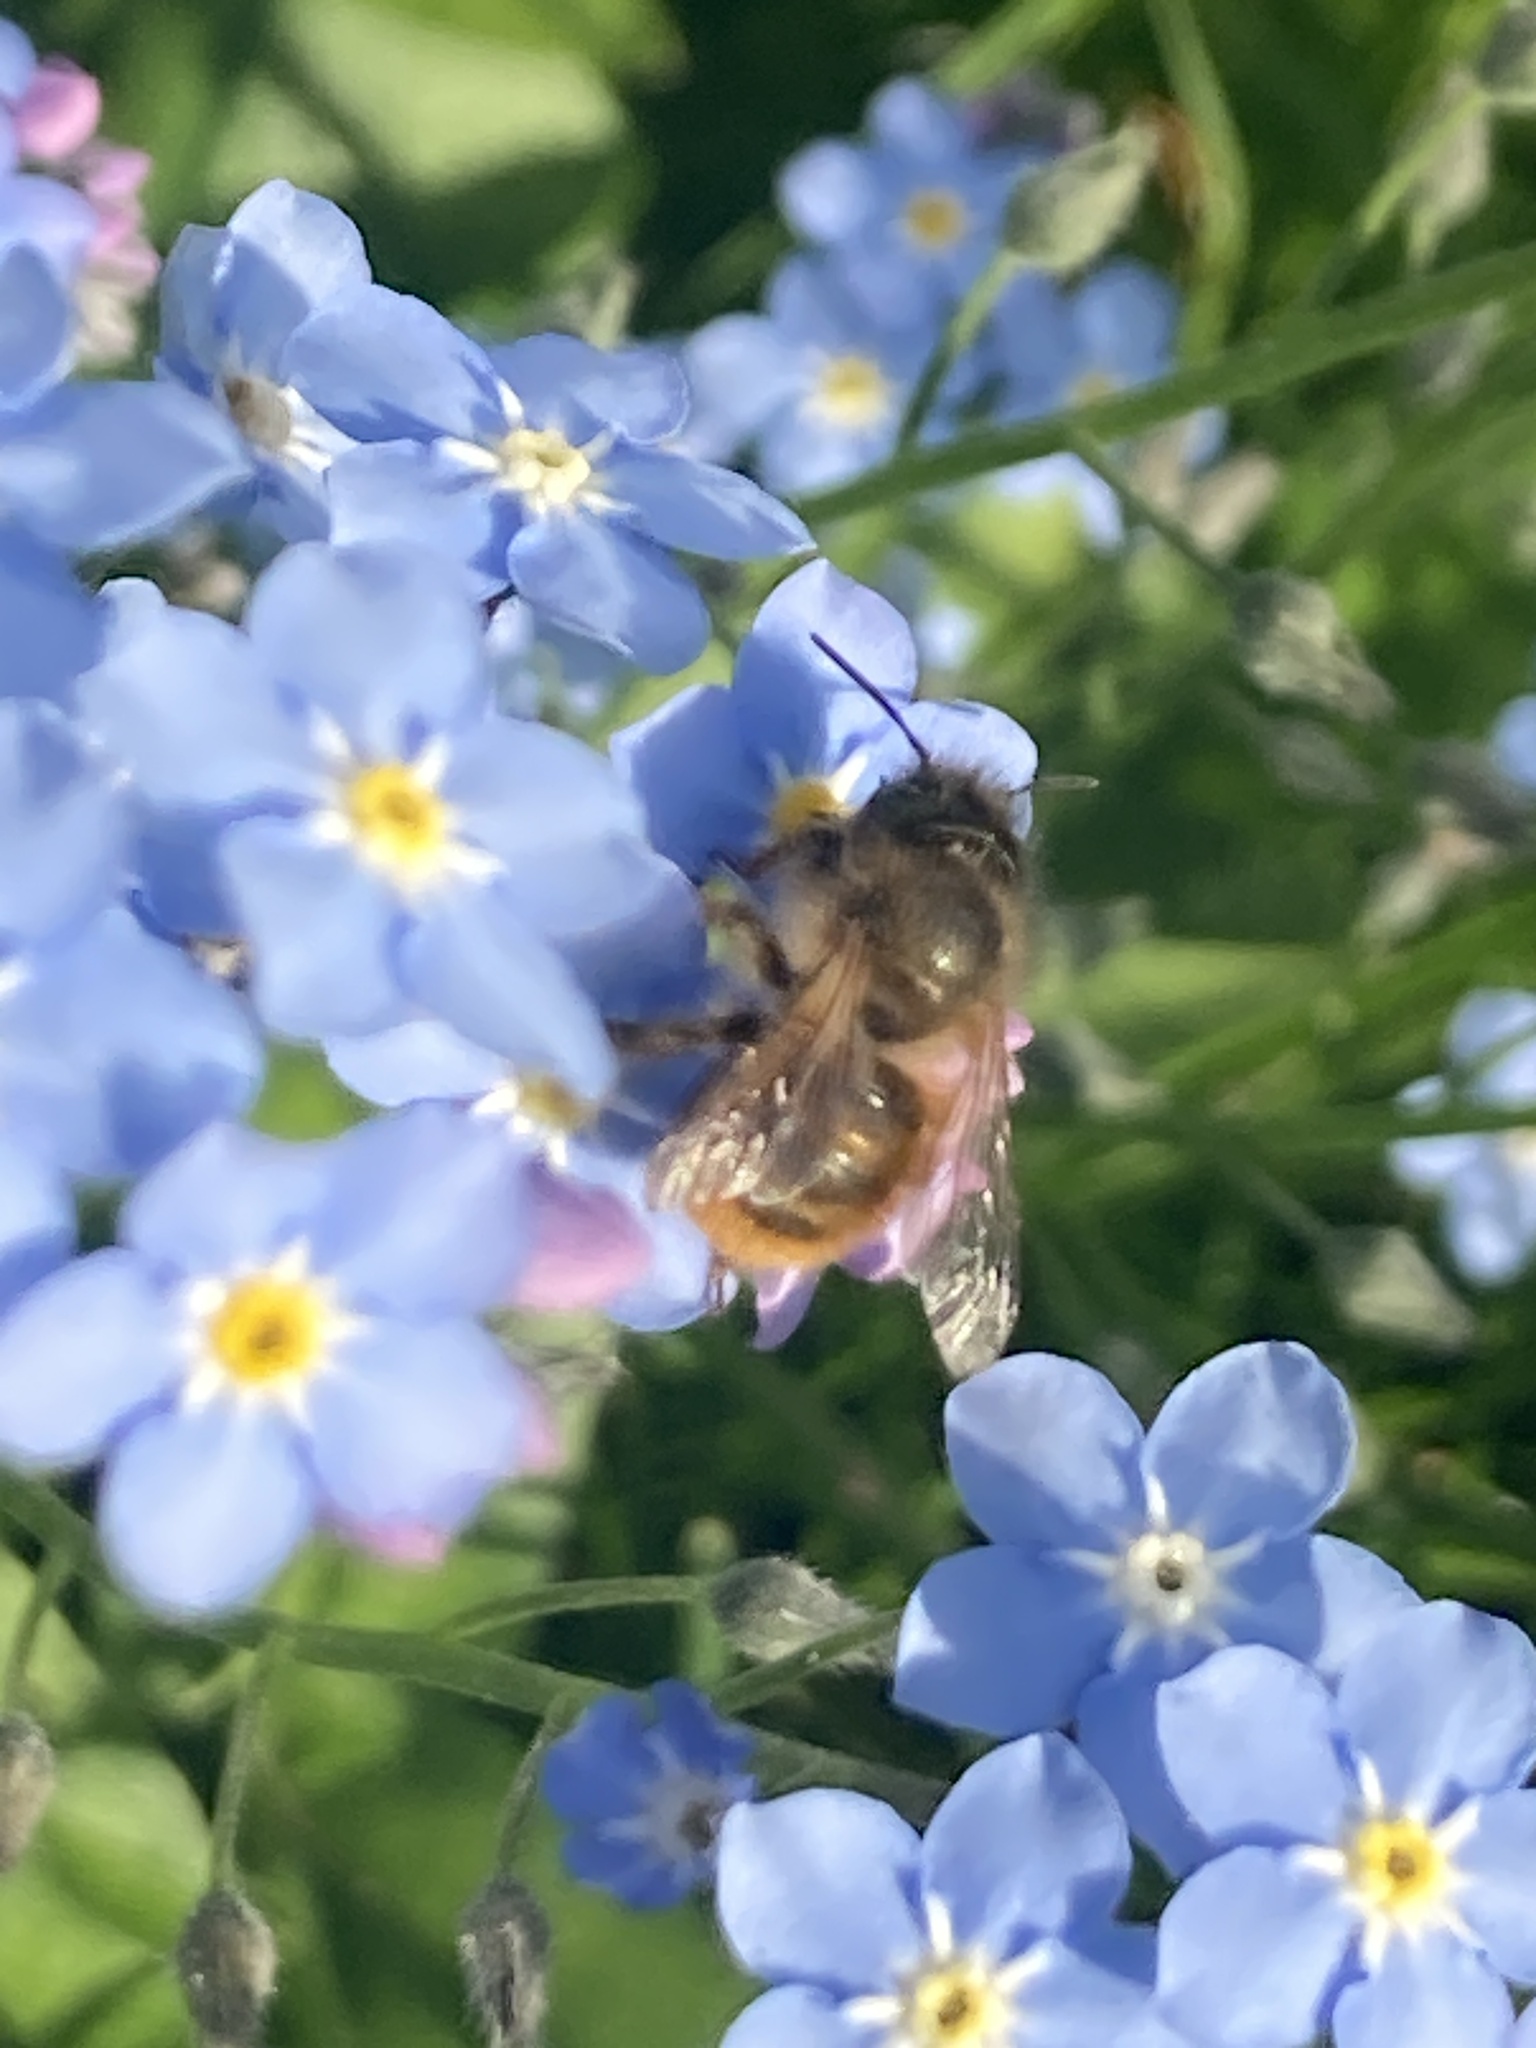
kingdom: Animalia
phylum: Arthropoda
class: Insecta
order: Hymenoptera
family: Megachilidae
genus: Osmia
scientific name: Osmia bicornis
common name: Red mason bee
